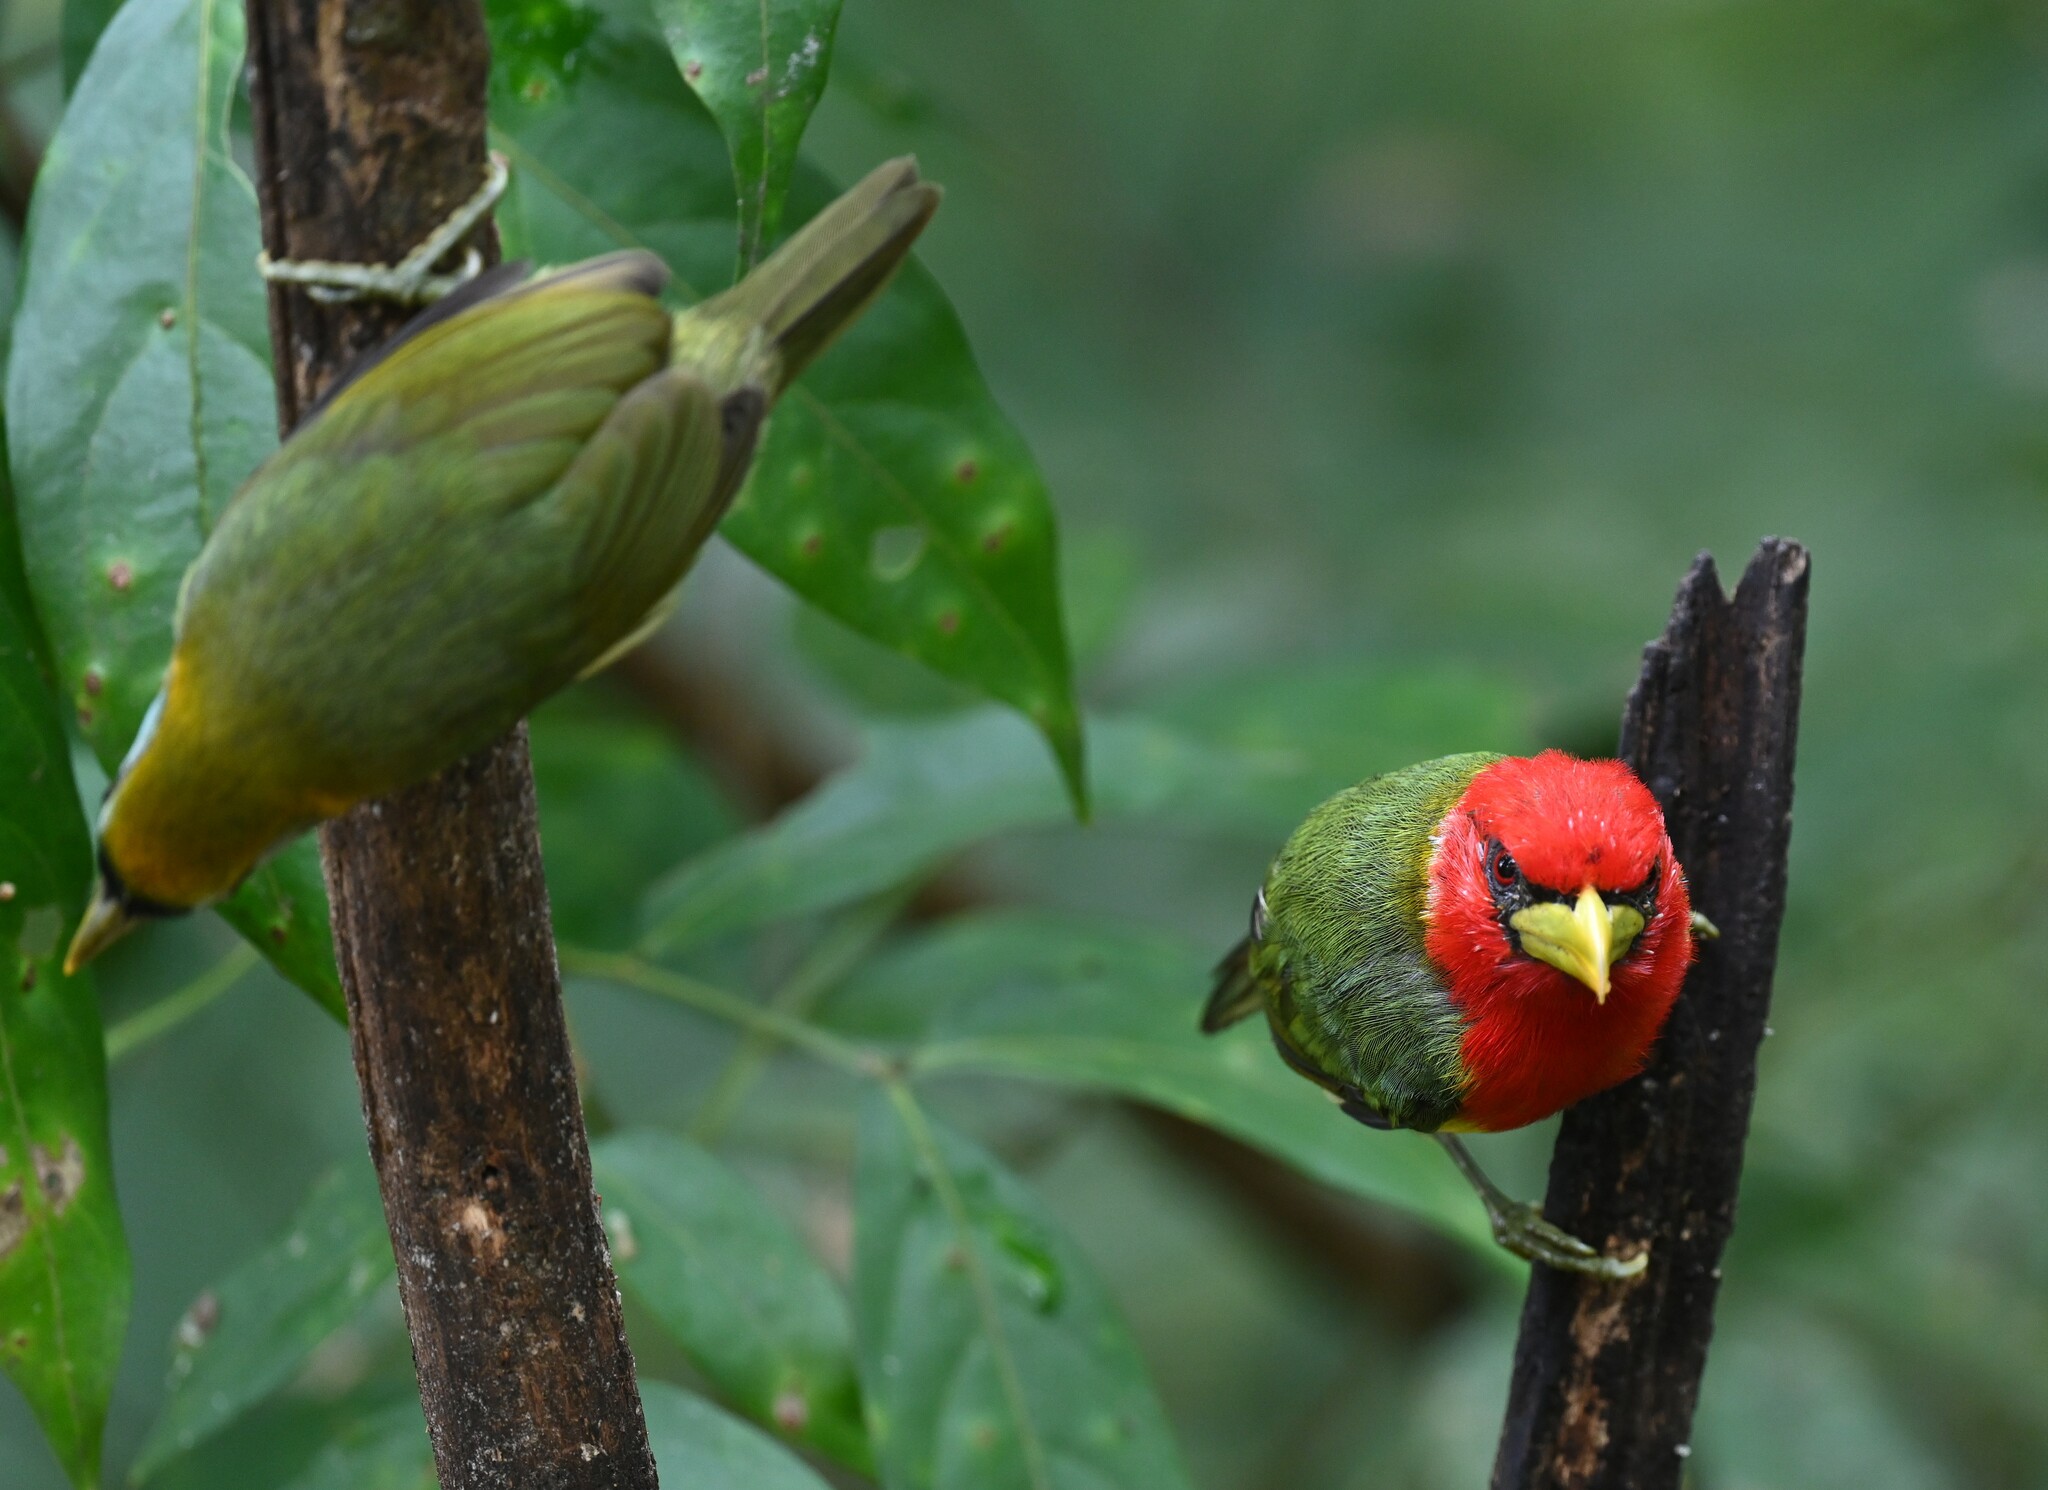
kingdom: Animalia
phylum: Chordata
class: Aves
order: Piciformes
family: Capitonidae
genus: Eubucco
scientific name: Eubucco bourcierii
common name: Red-headed barbet
